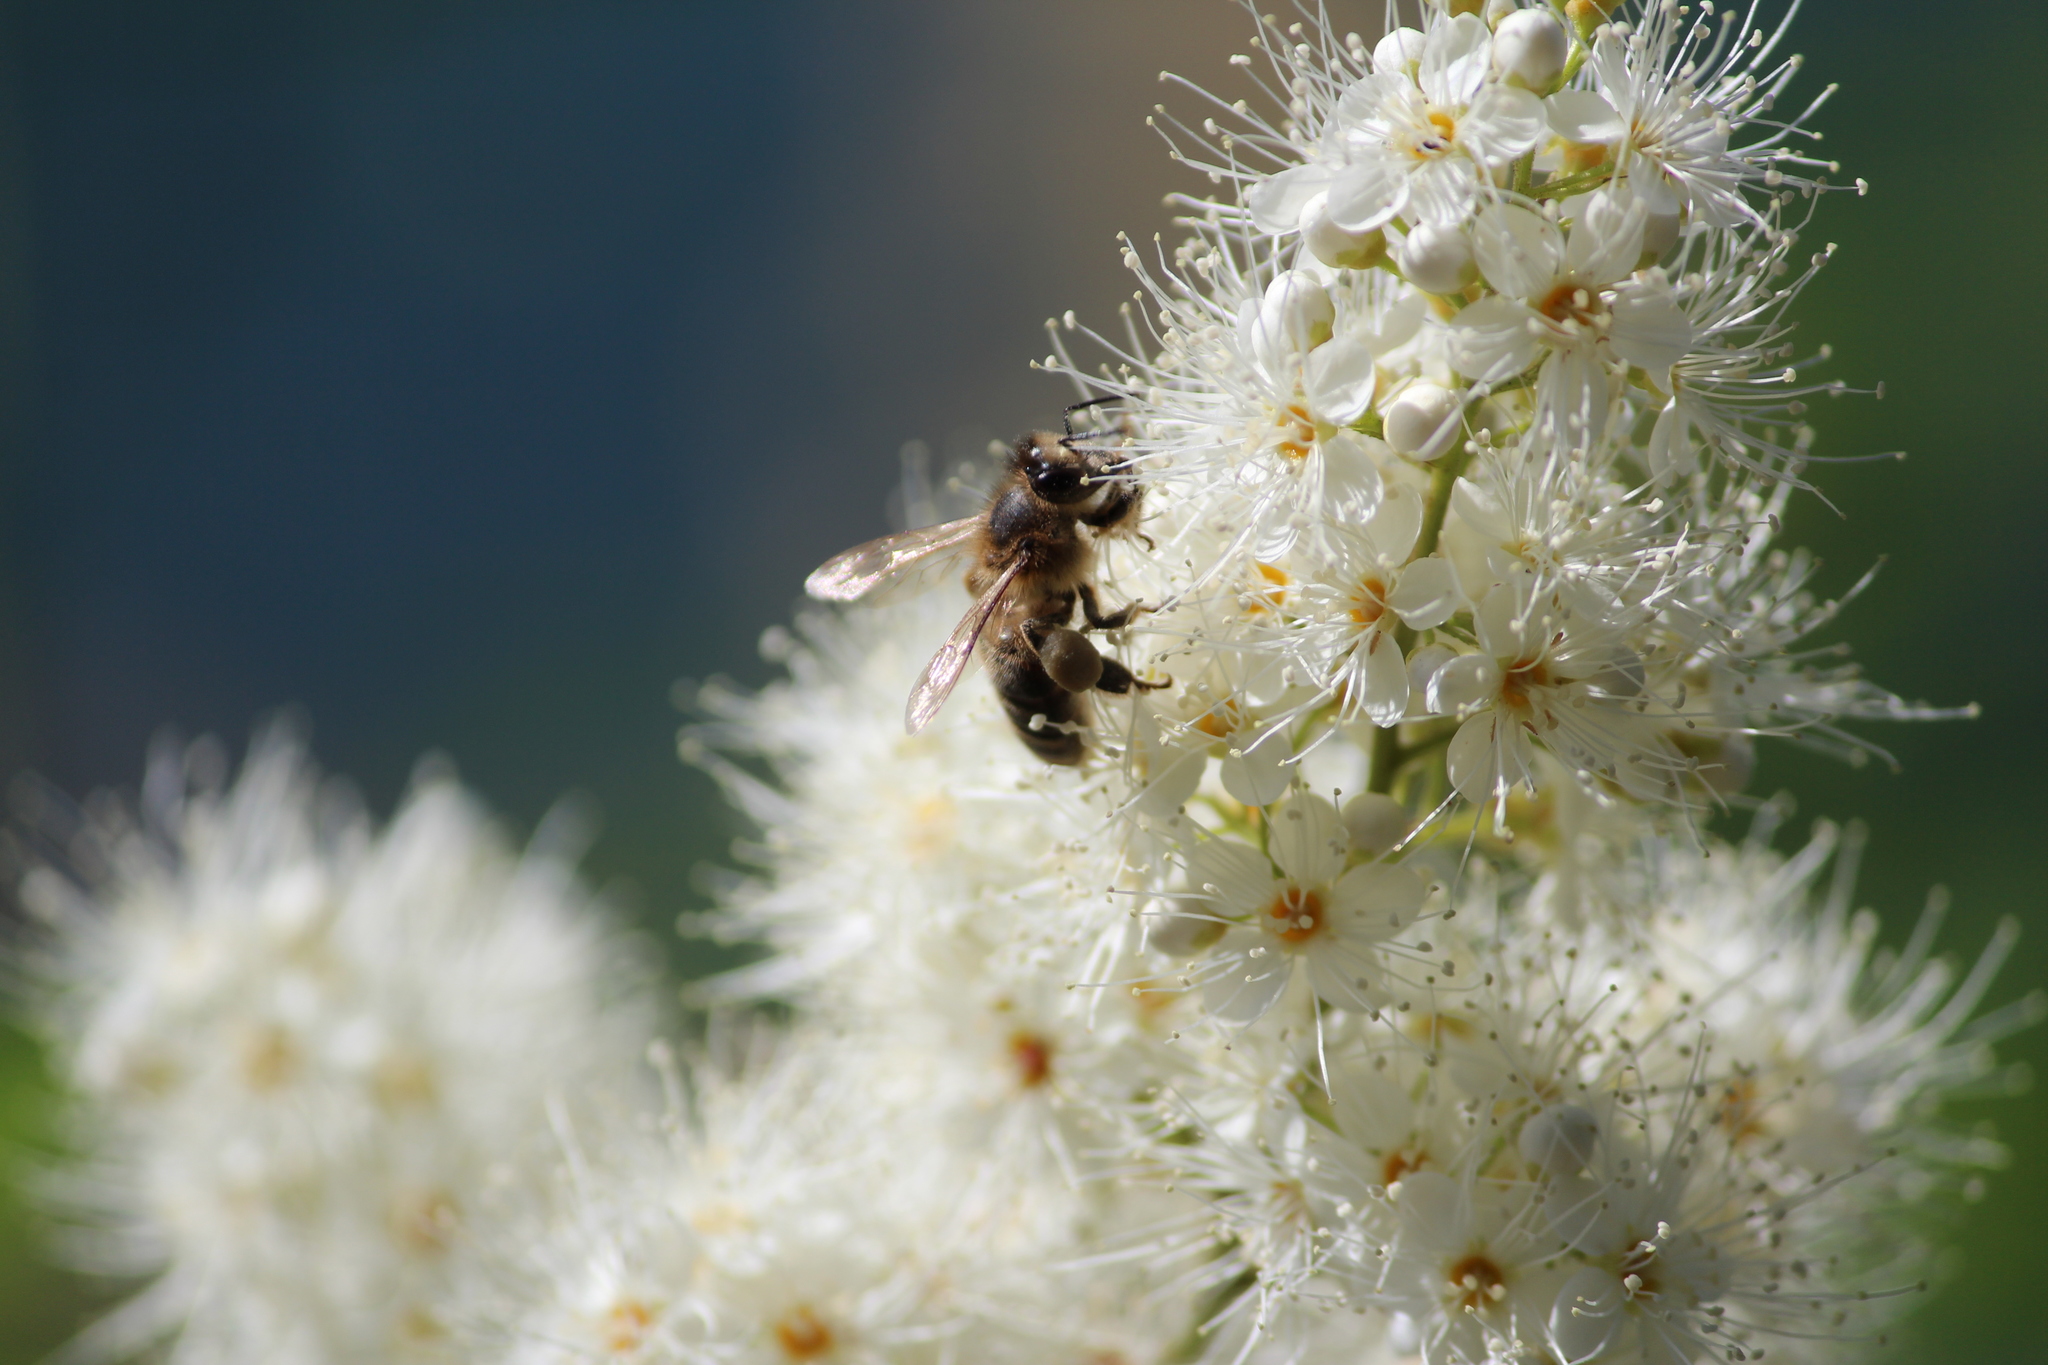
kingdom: Animalia
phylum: Arthropoda
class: Insecta
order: Hymenoptera
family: Apidae
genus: Apis
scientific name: Apis mellifera
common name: Honey bee
